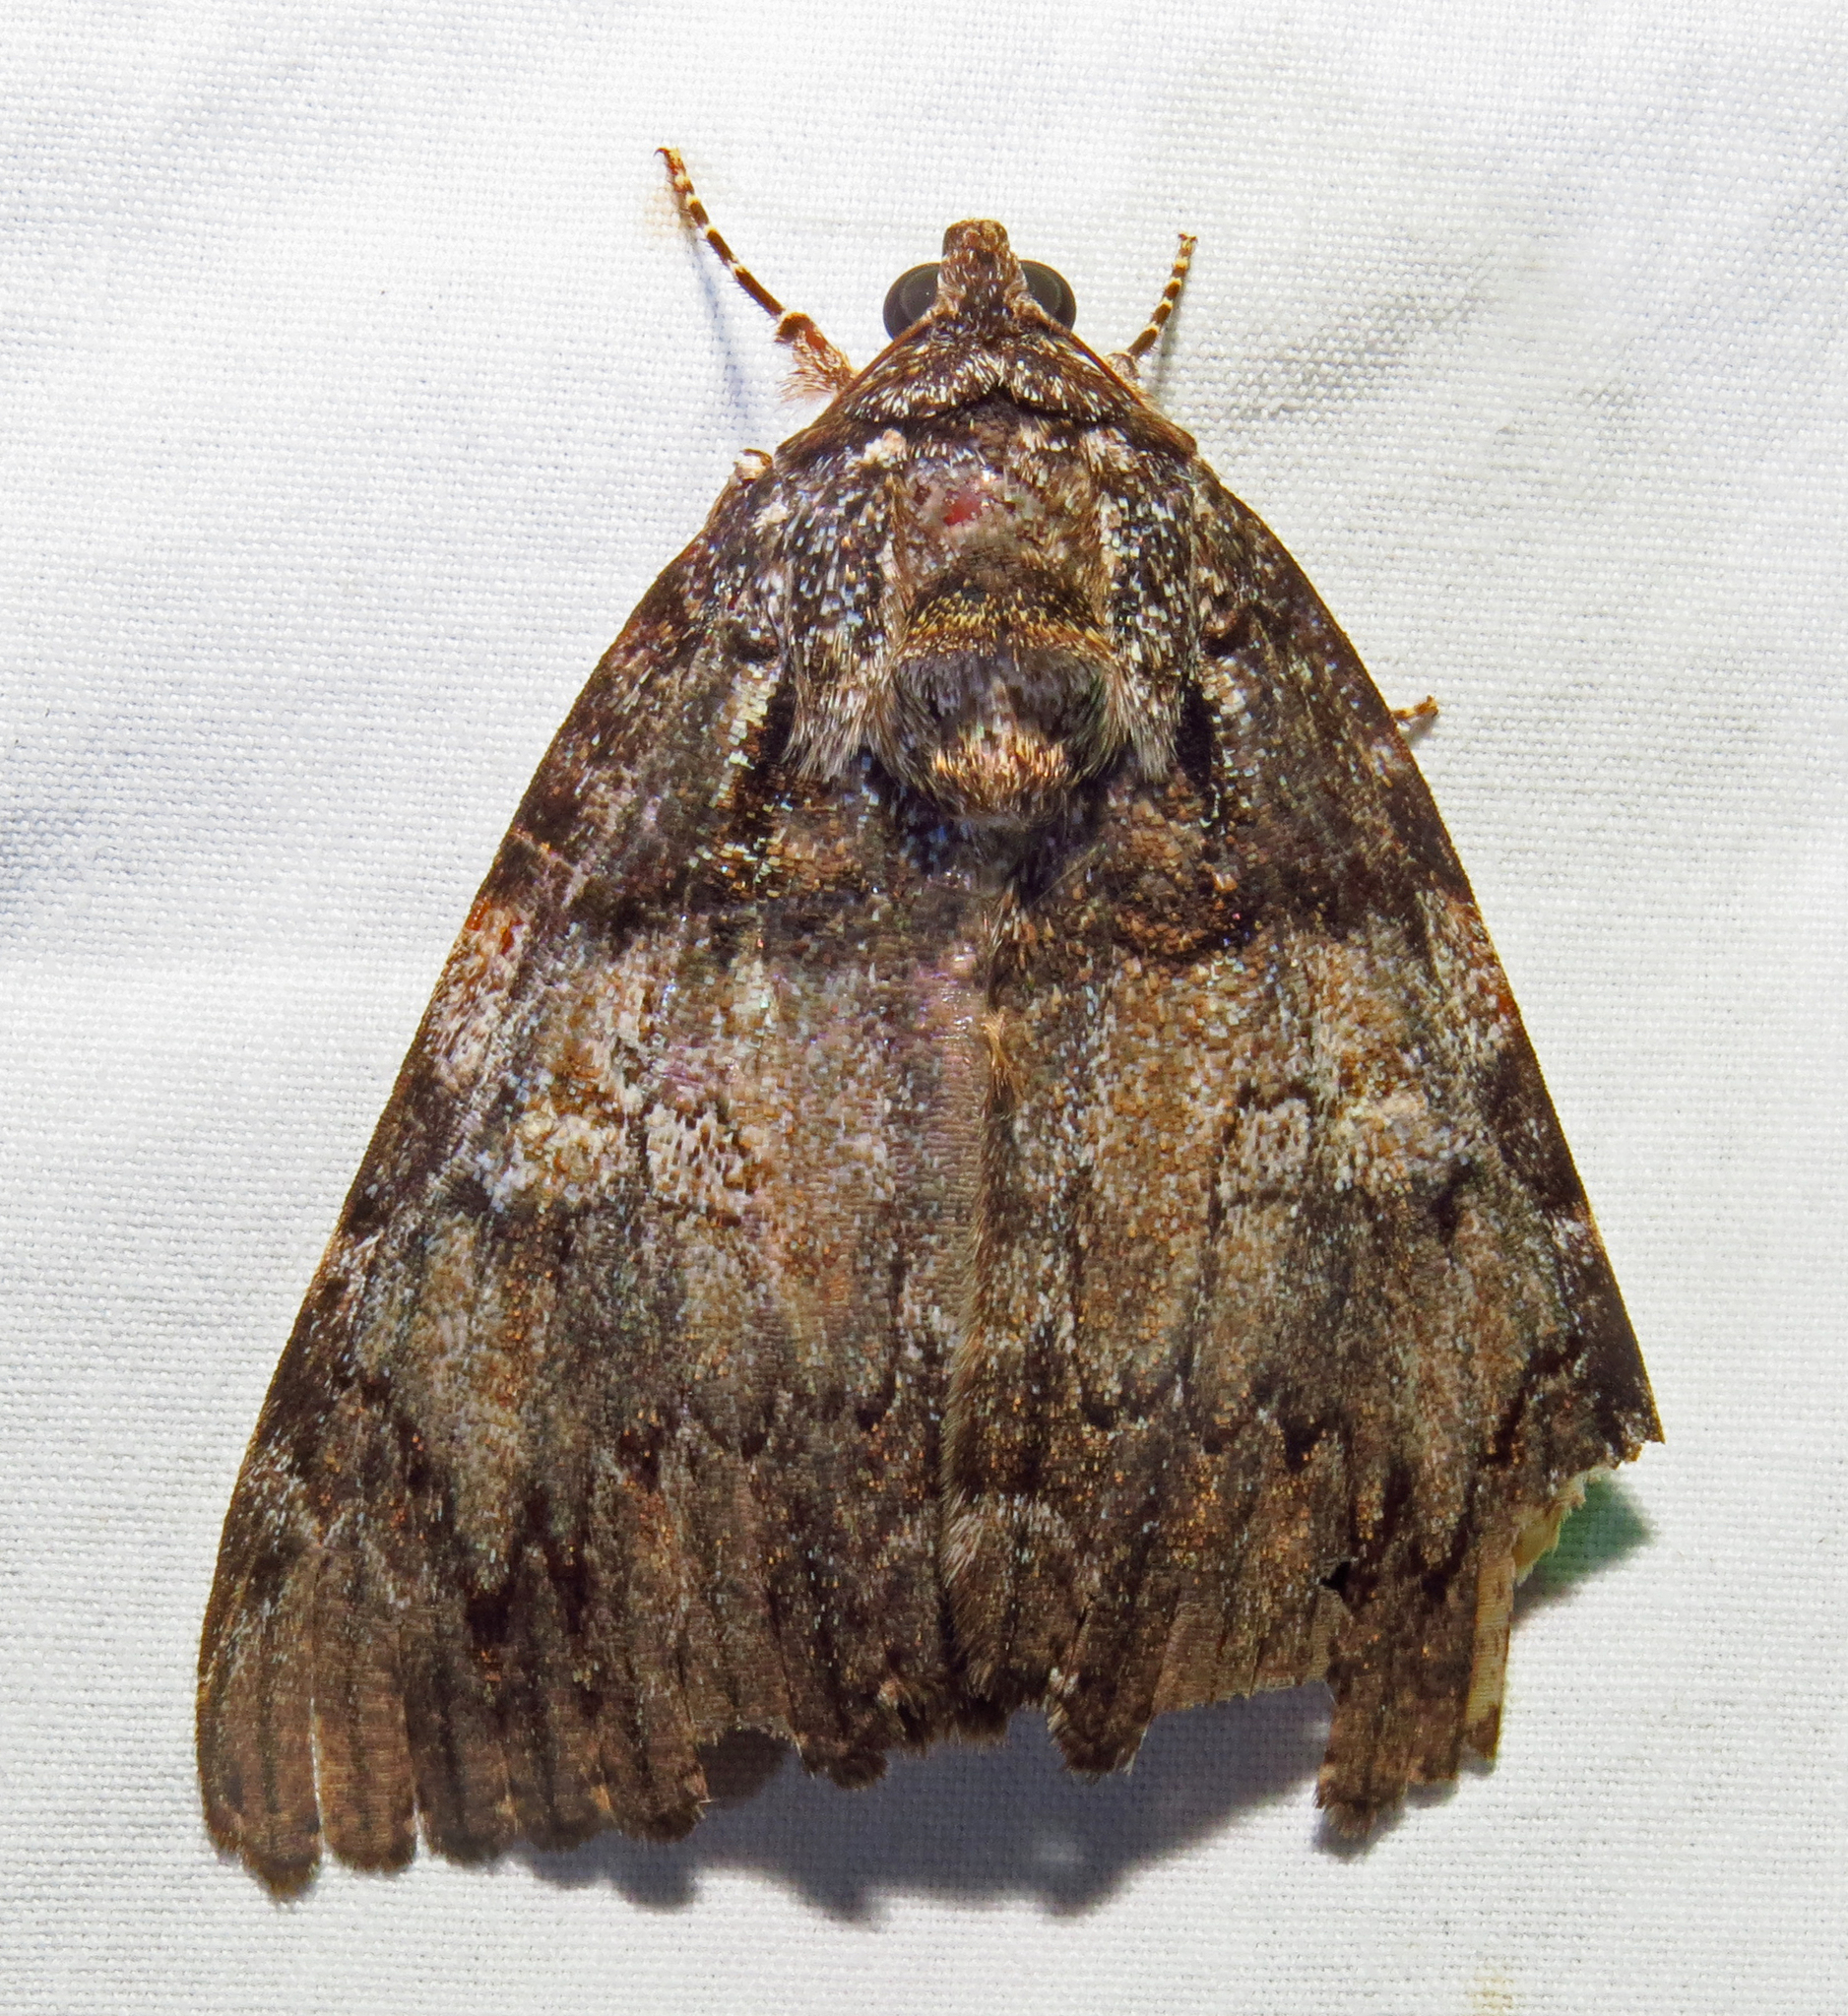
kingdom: Animalia
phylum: Arthropoda
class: Insecta
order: Lepidoptera
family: Erebidae
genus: Catocala
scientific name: Catocala ilia
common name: Ilia underwing
